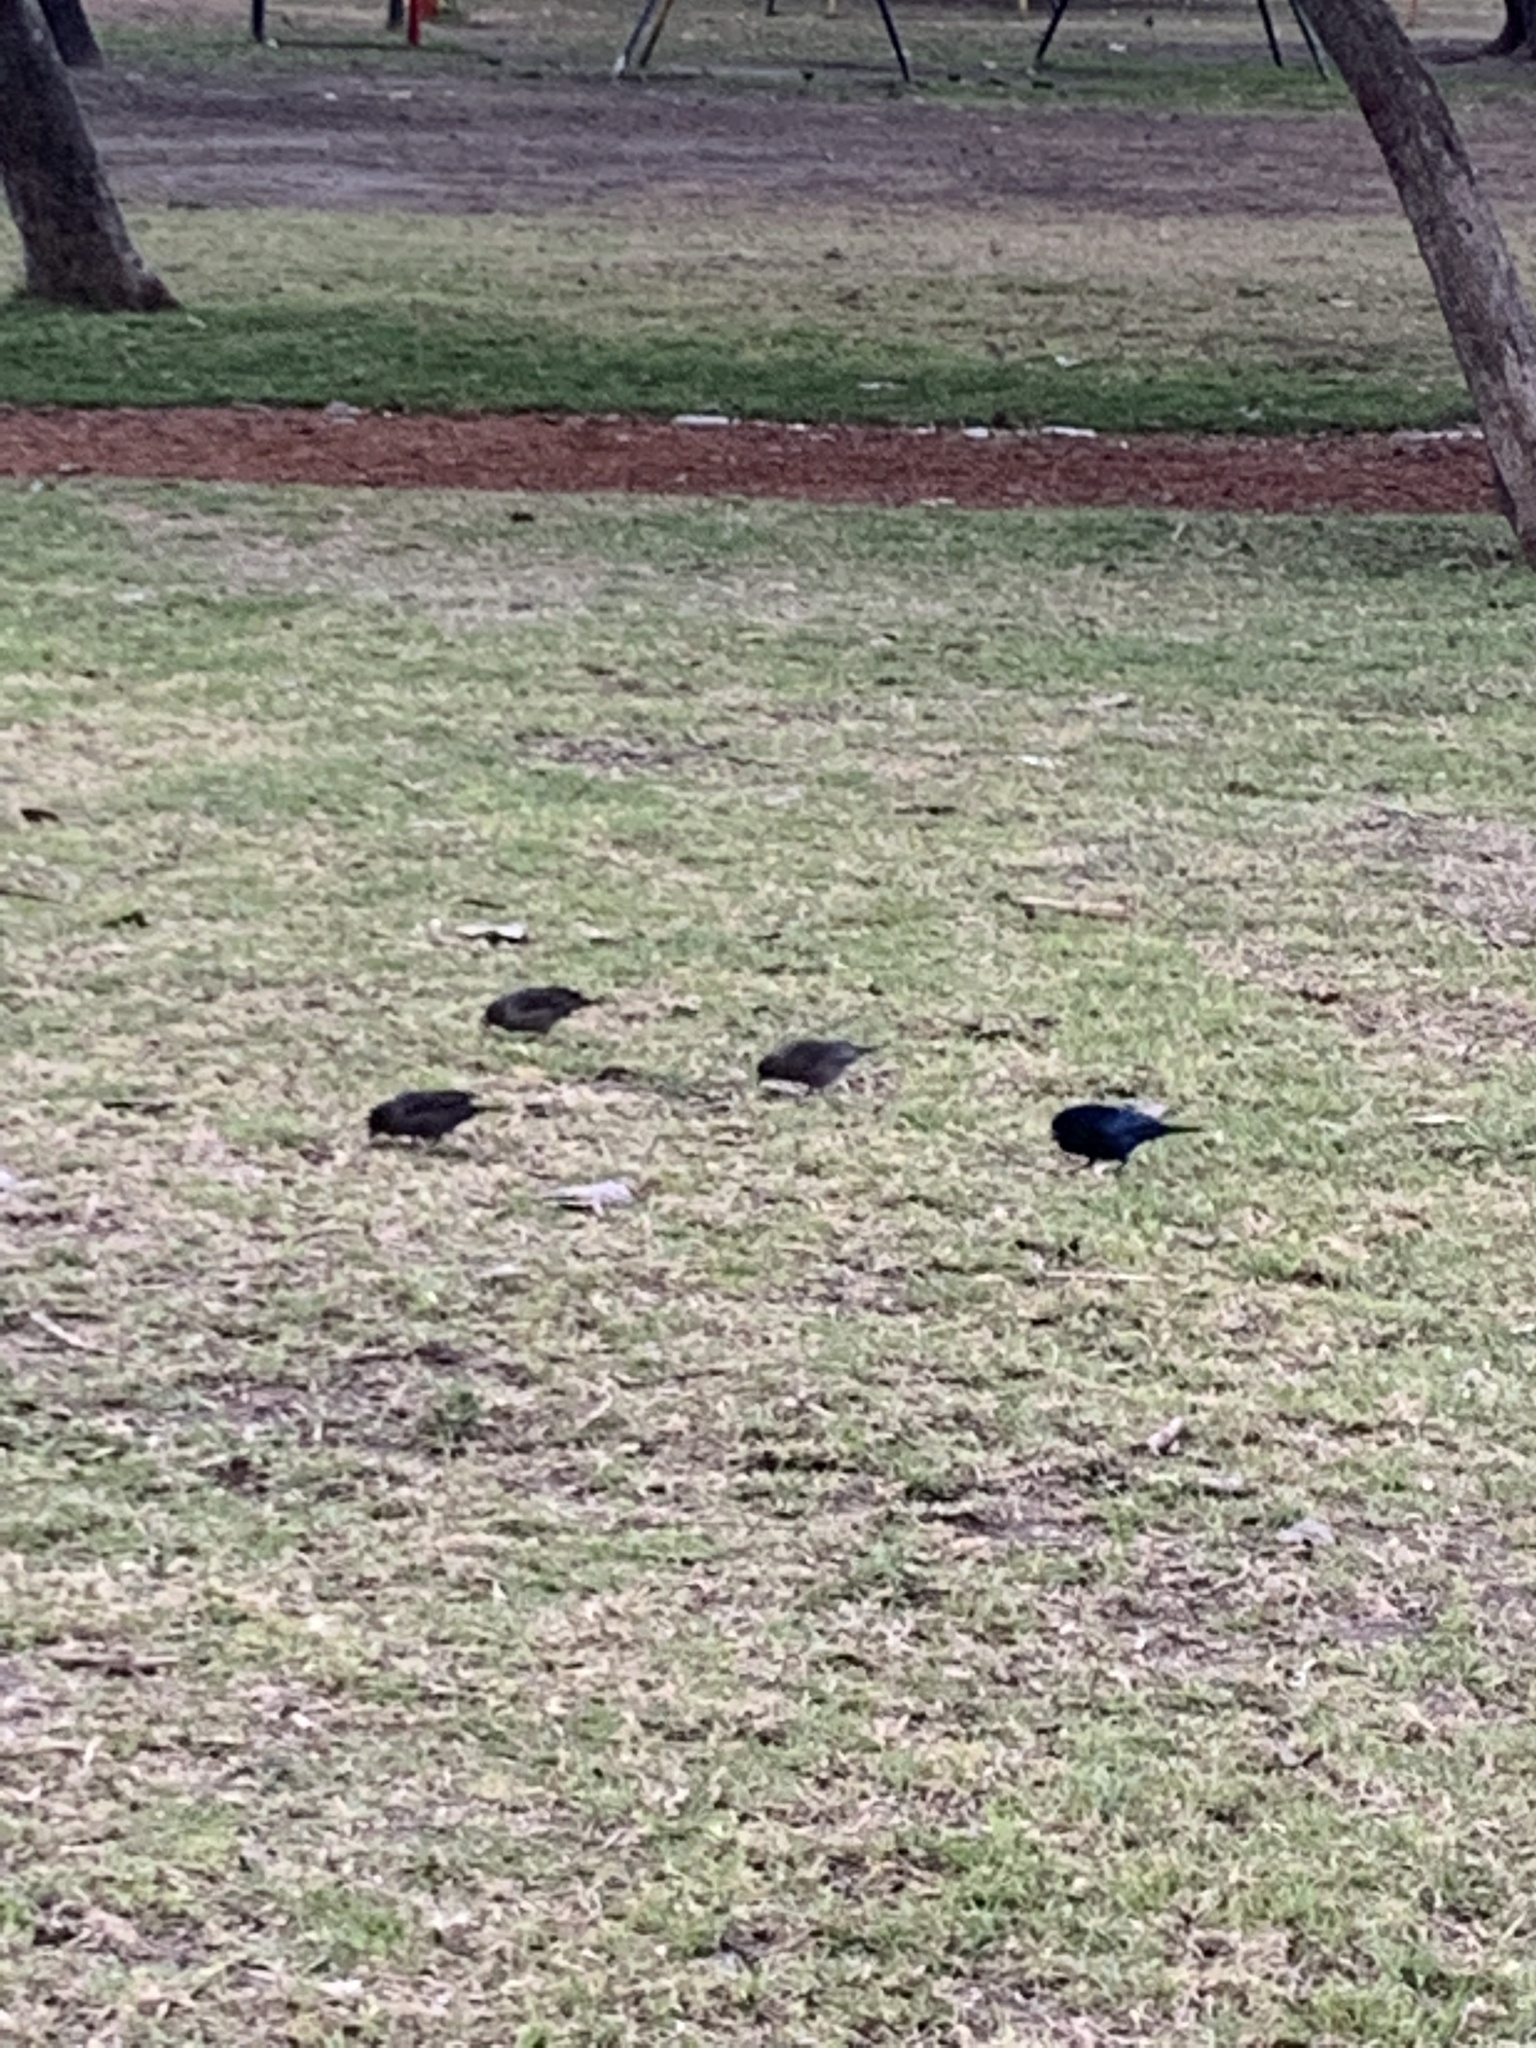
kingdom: Animalia
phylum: Chordata
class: Aves
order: Passeriformes
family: Icteridae
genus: Molothrus
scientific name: Molothrus bonariensis
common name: Shiny cowbird
